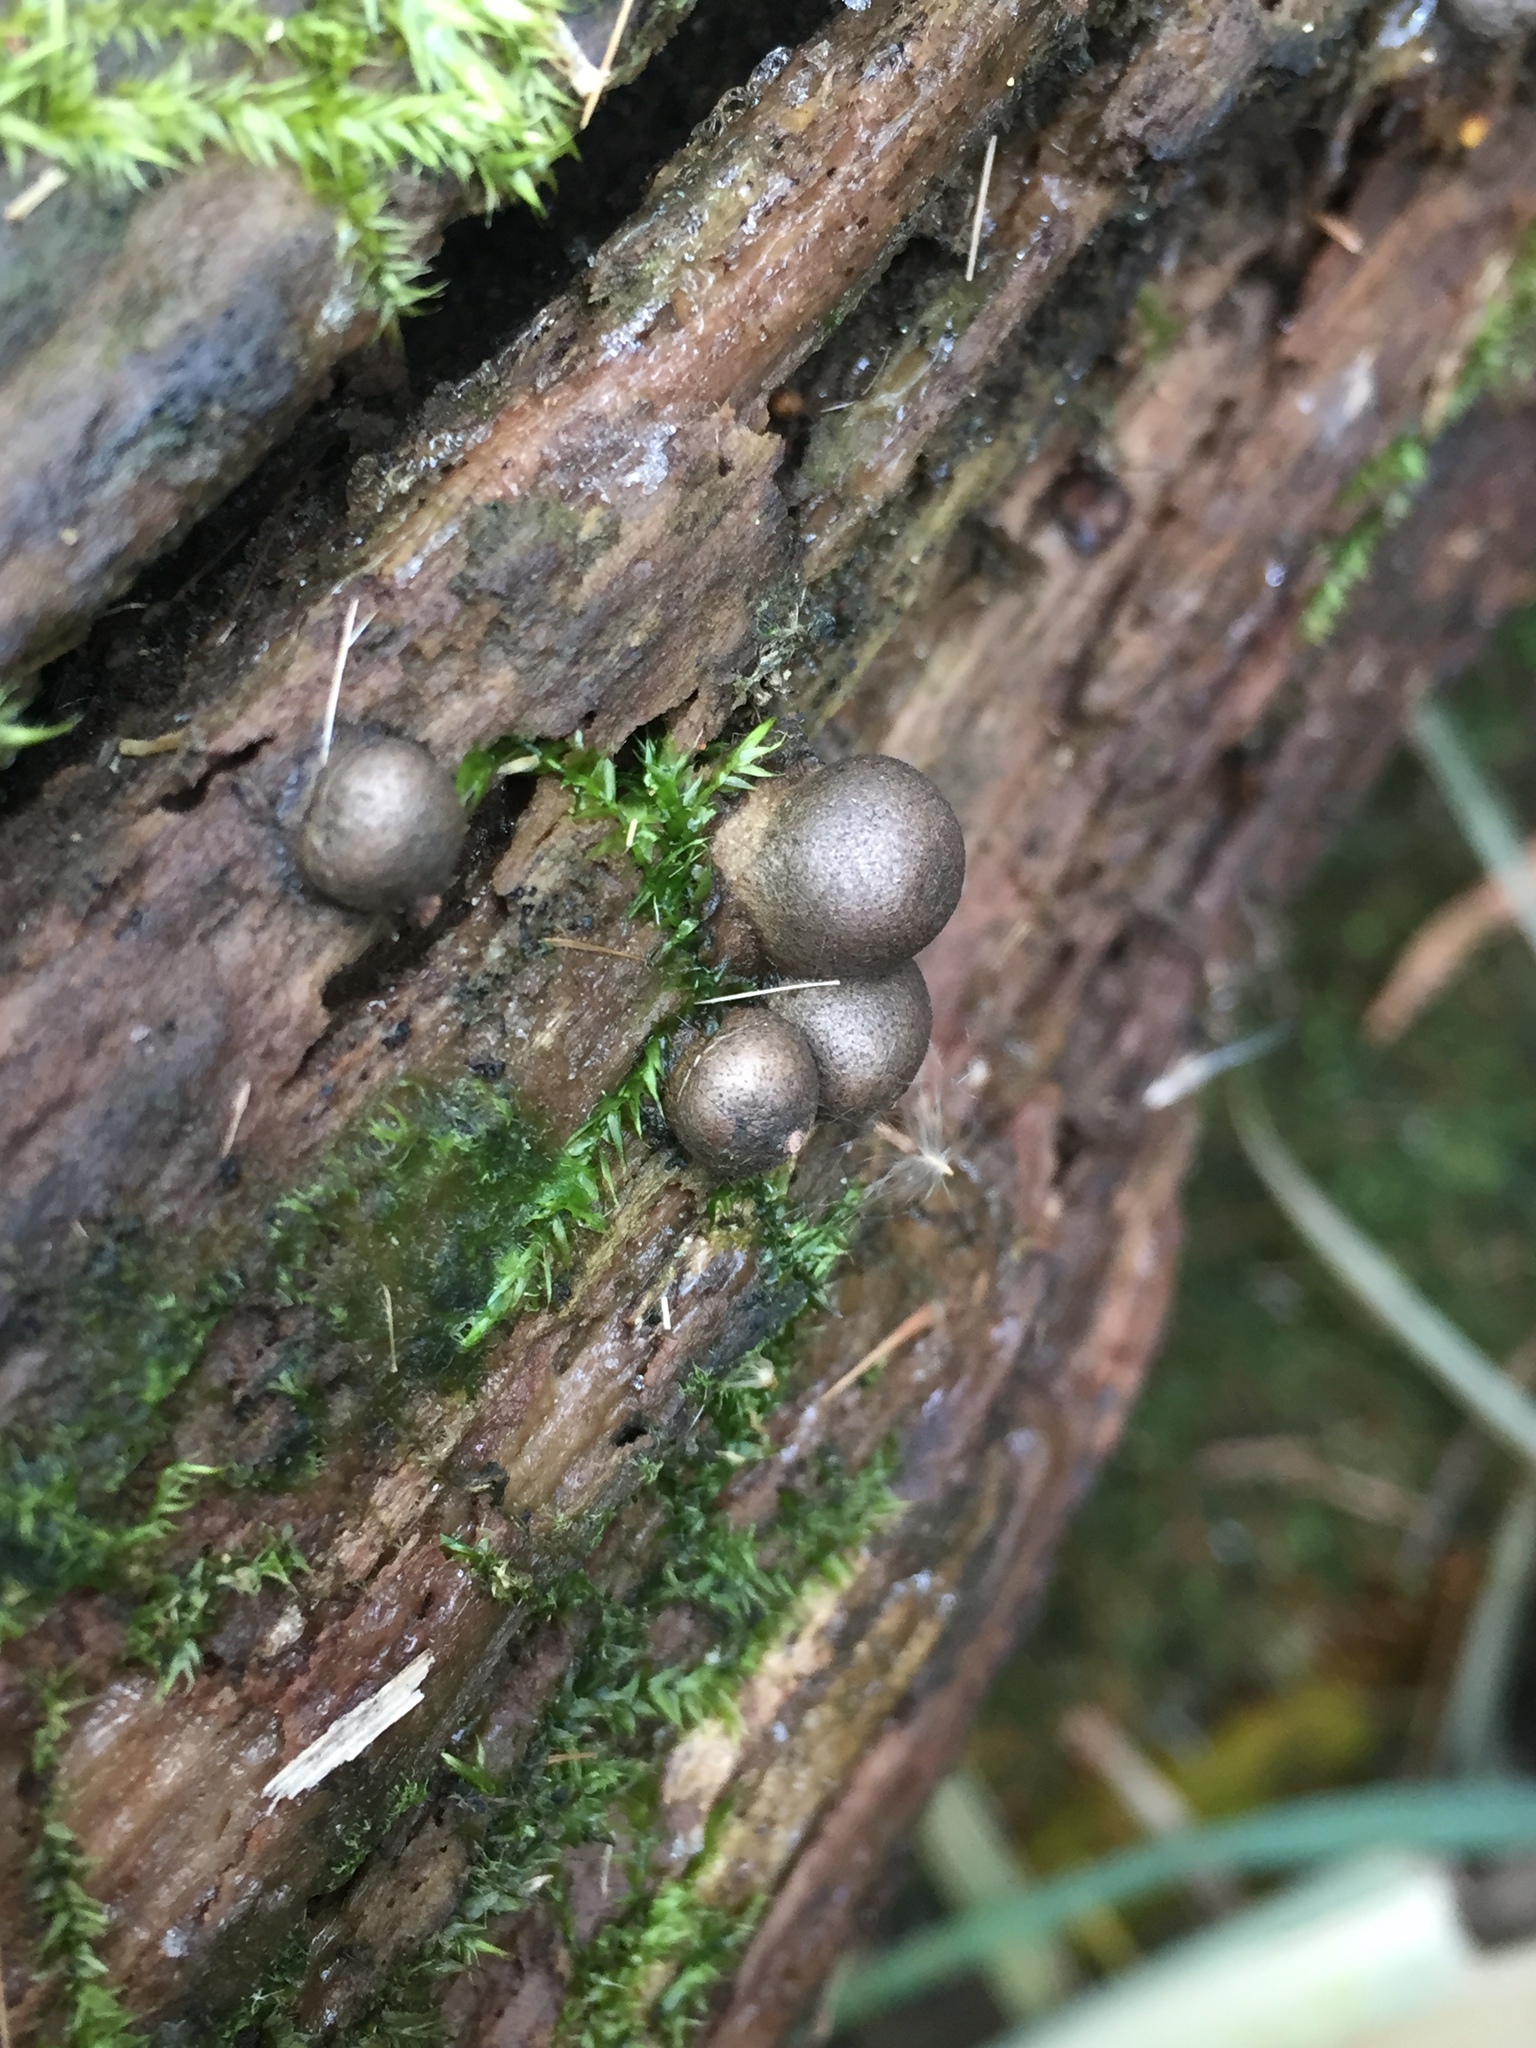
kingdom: Protozoa
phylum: Mycetozoa
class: Myxomycetes
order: Cribrariales
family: Tubiferaceae
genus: Lycogala
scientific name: Lycogala epidendrum
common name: Wolf's milk
